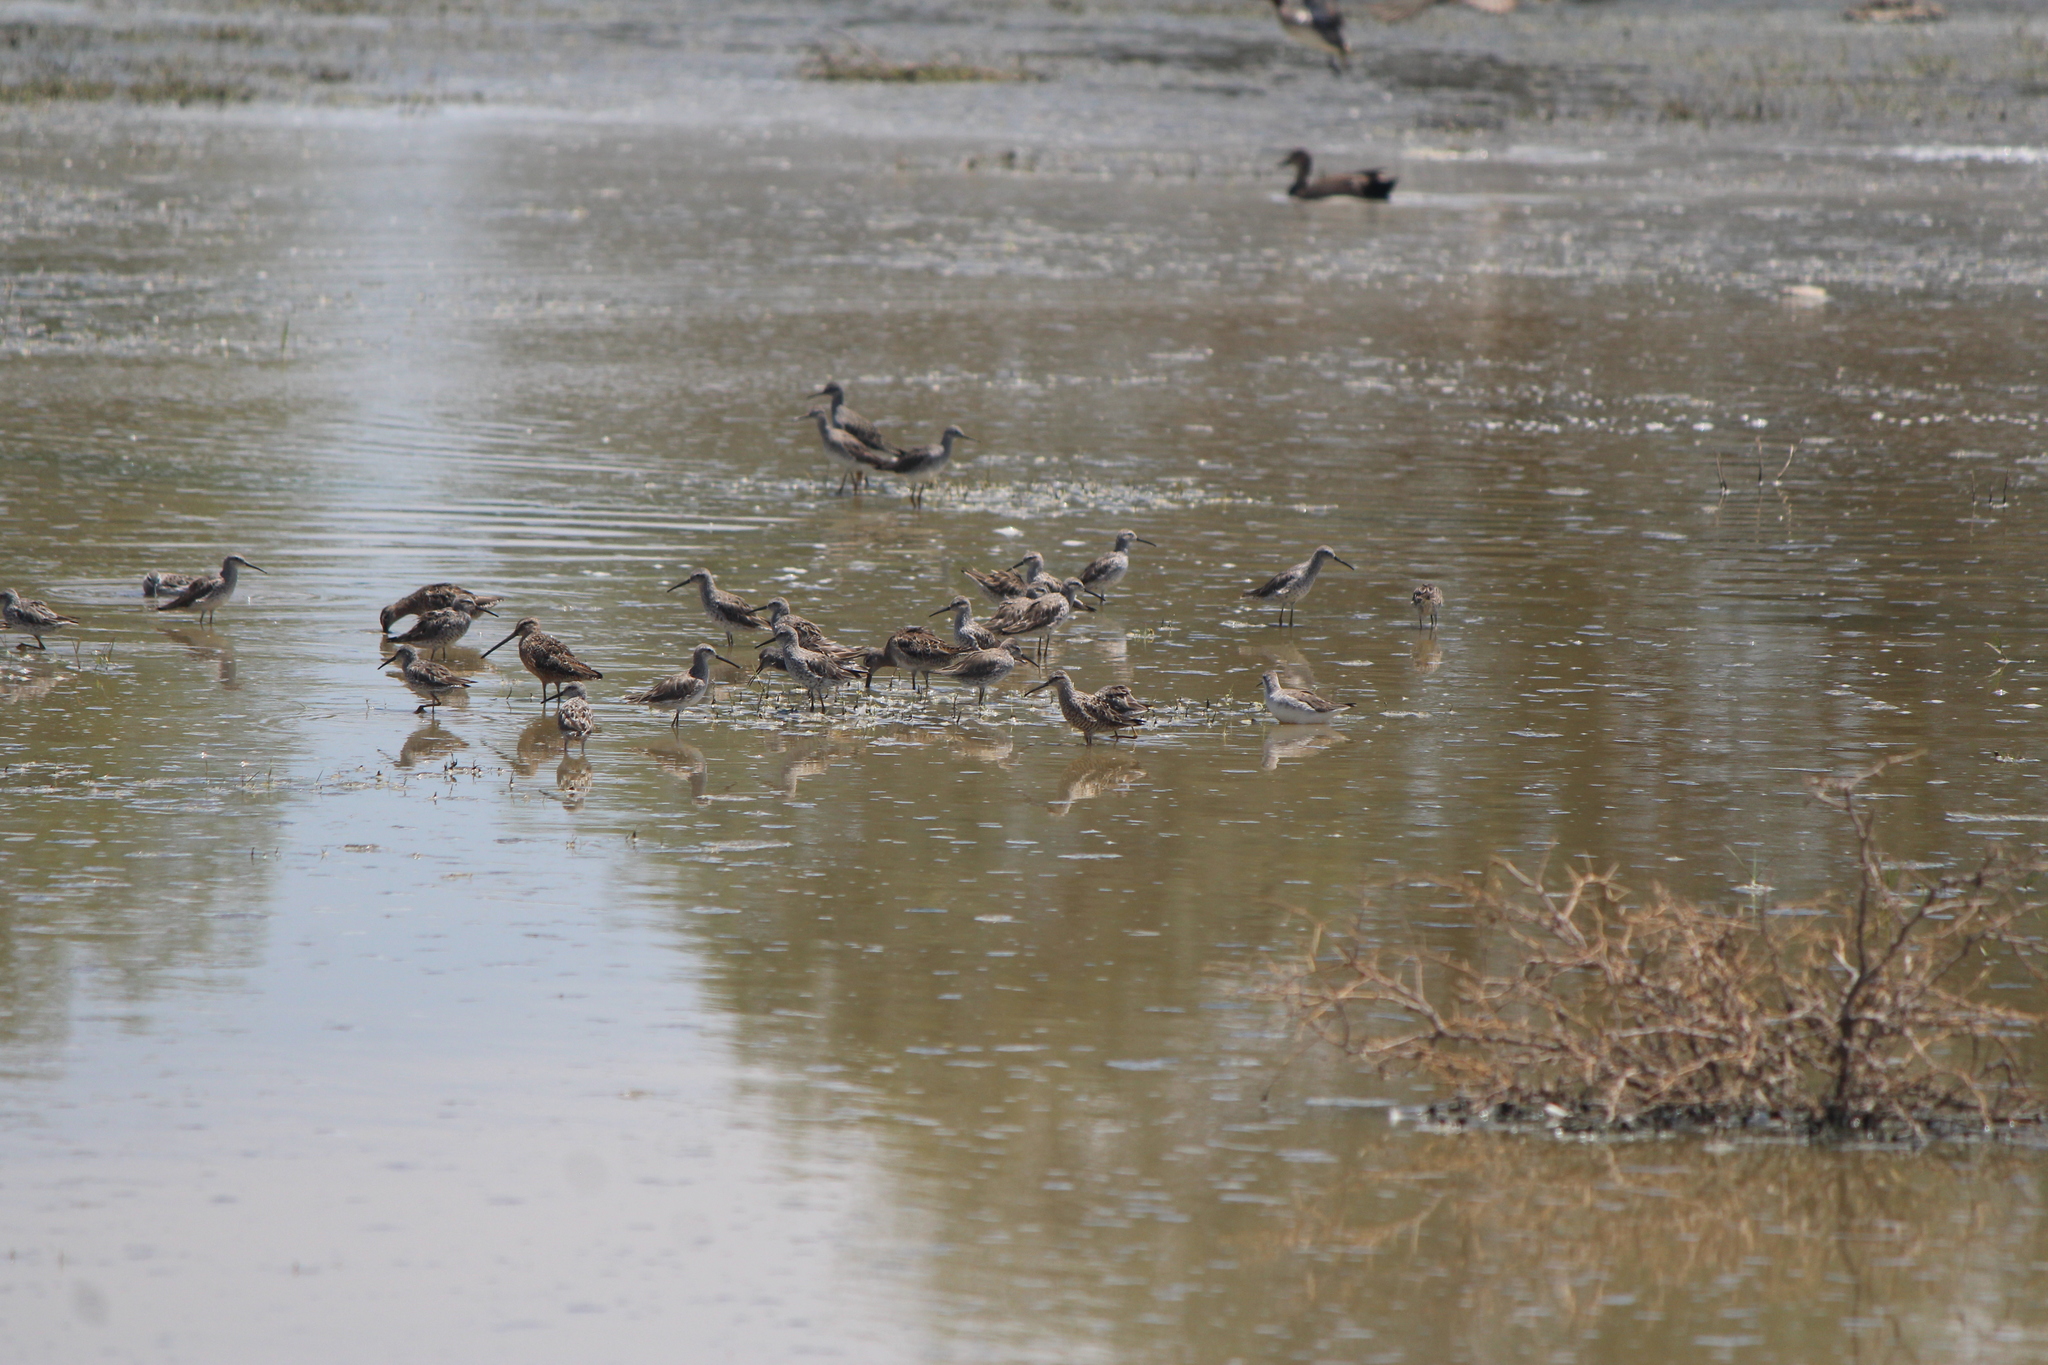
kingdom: Animalia
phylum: Chordata
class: Aves
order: Charadriiformes
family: Scolopacidae
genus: Calidris
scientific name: Calidris himantopus
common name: Stilt sandpiper
